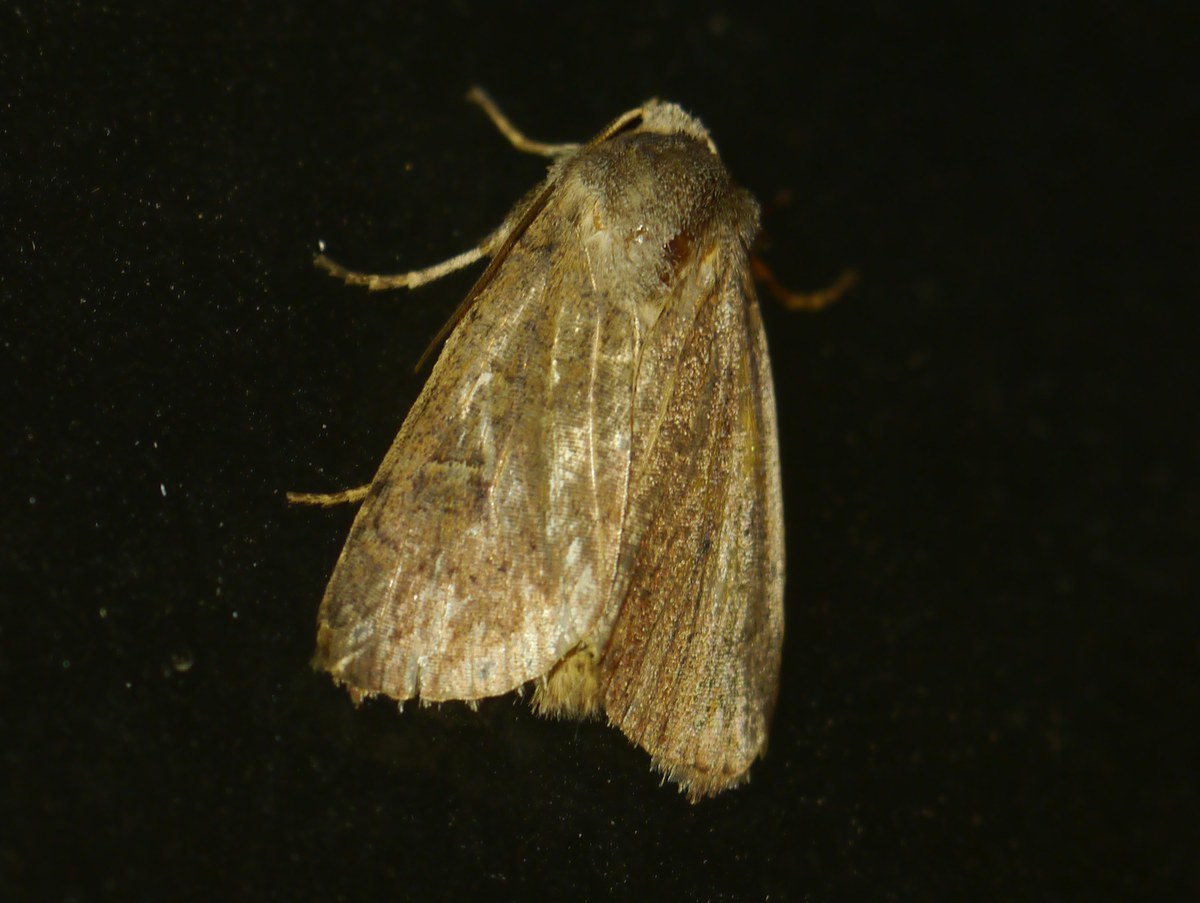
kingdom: Animalia
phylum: Arthropoda
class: Insecta
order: Lepidoptera
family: Noctuidae
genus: Xestia
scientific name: Xestia xanthographa
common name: Square-spot rustic
